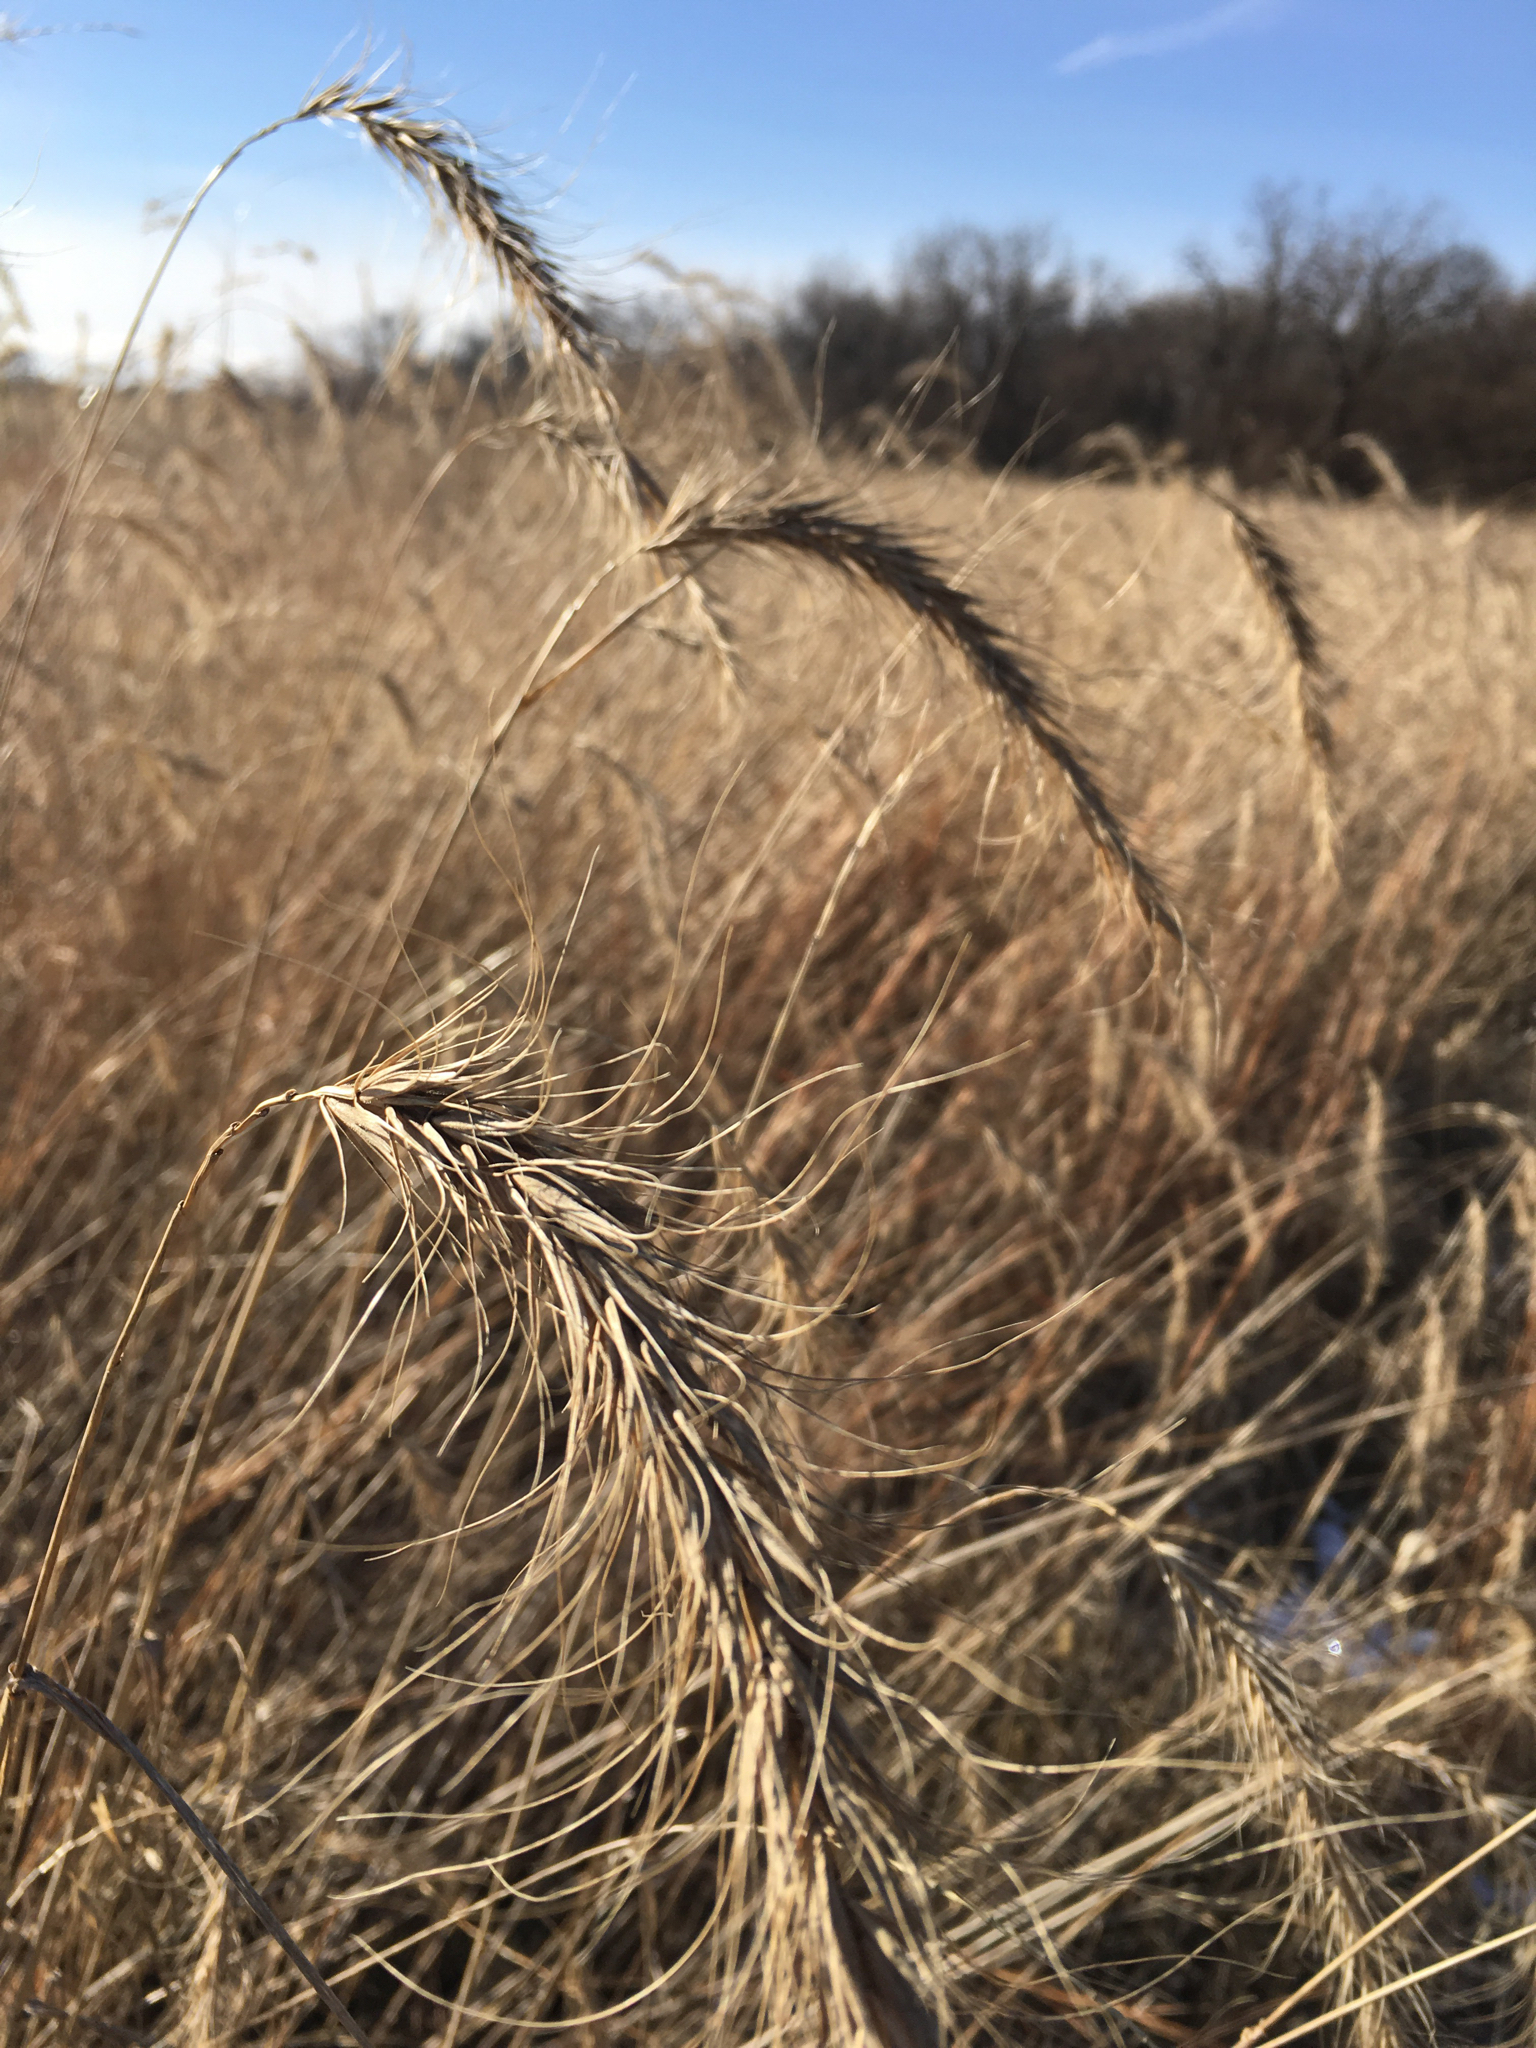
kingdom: Plantae
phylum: Tracheophyta
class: Liliopsida
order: Poales
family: Poaceae
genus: Elymus
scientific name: Elymus canadensis
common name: Canada wild rye
